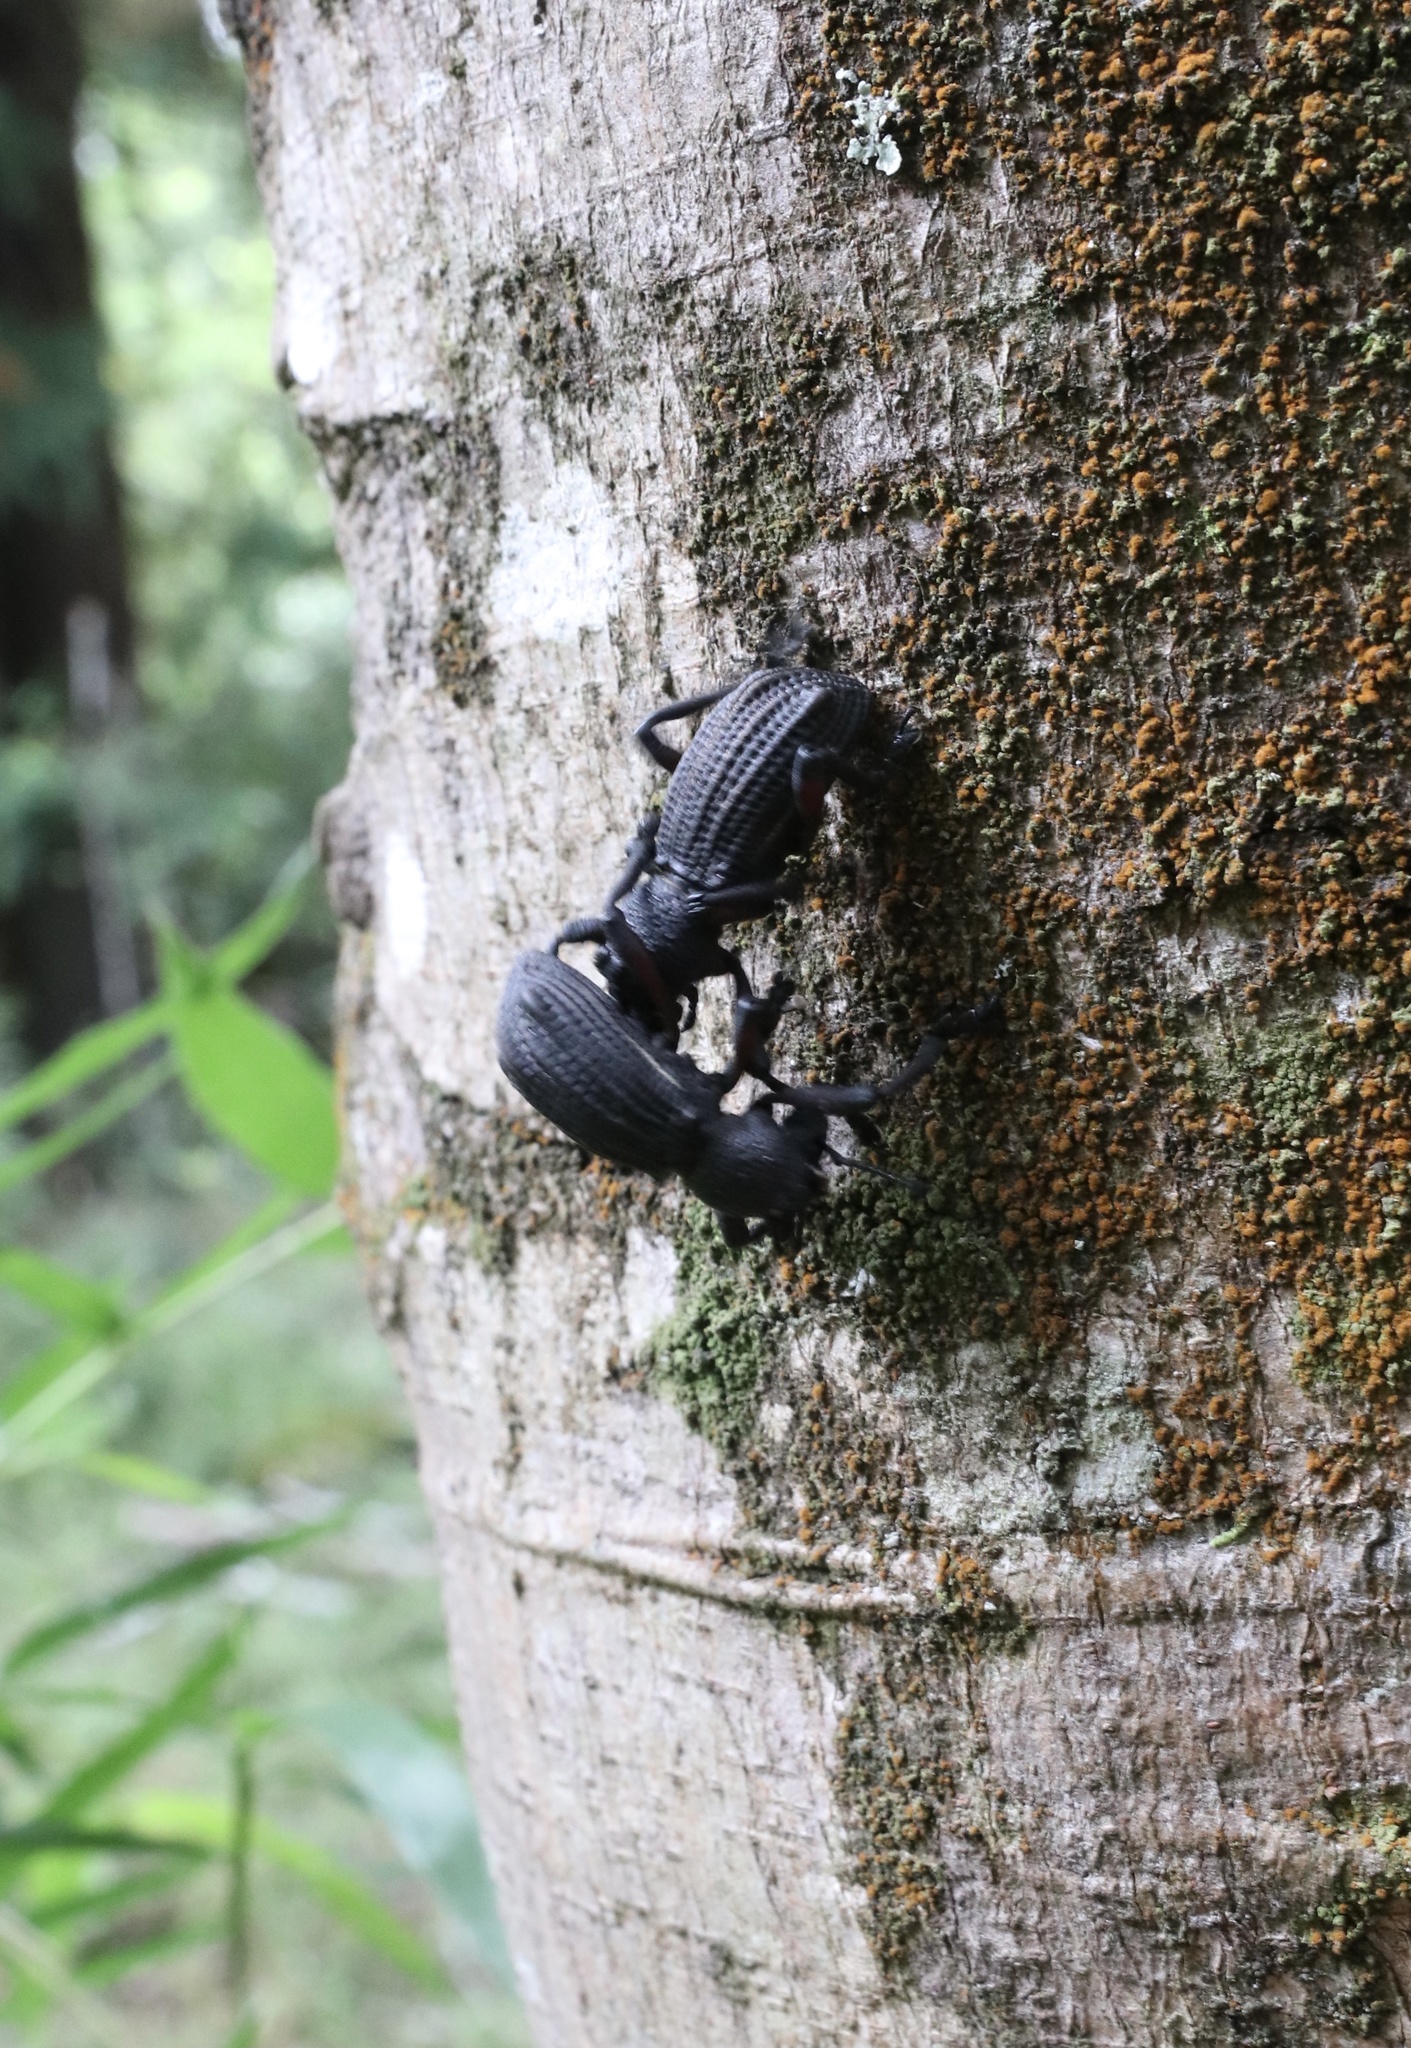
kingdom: Animalia
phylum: Arthropoda
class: Insecta
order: Coleoptera
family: Curculionidae
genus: Aegorhinus
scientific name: Aegorhinus
